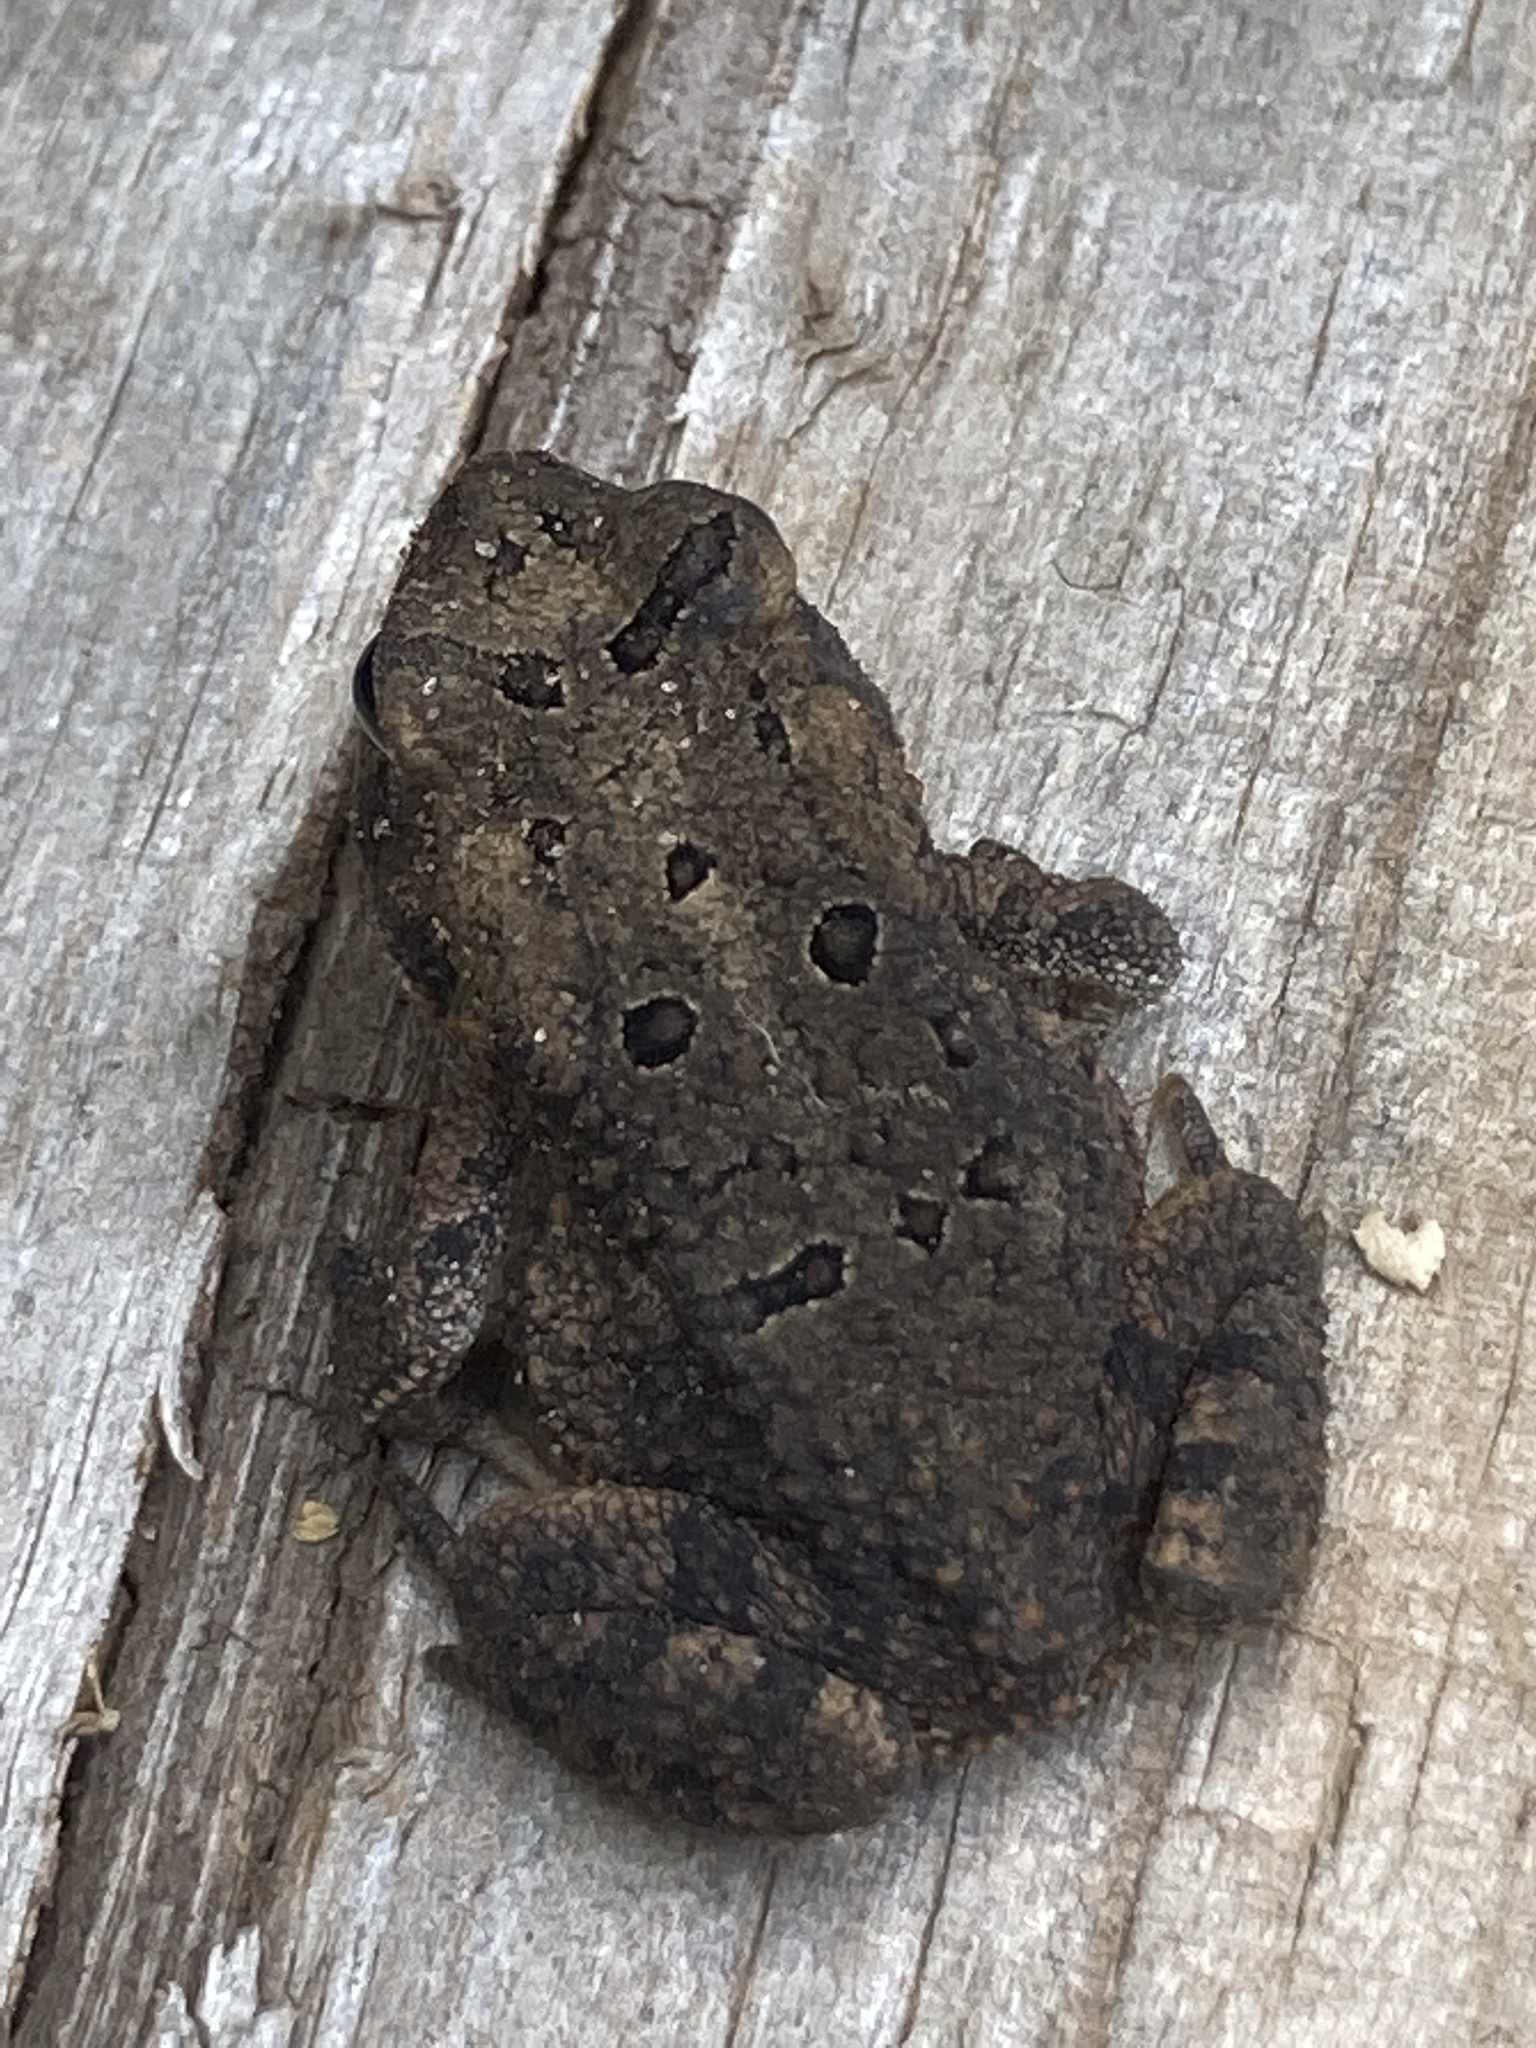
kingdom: Animalia
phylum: Chordata
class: Amphibia
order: Anura
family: Bufonidae
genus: Anaxyrus
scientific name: Anaxyrus fowleri
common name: Fowler's toad
